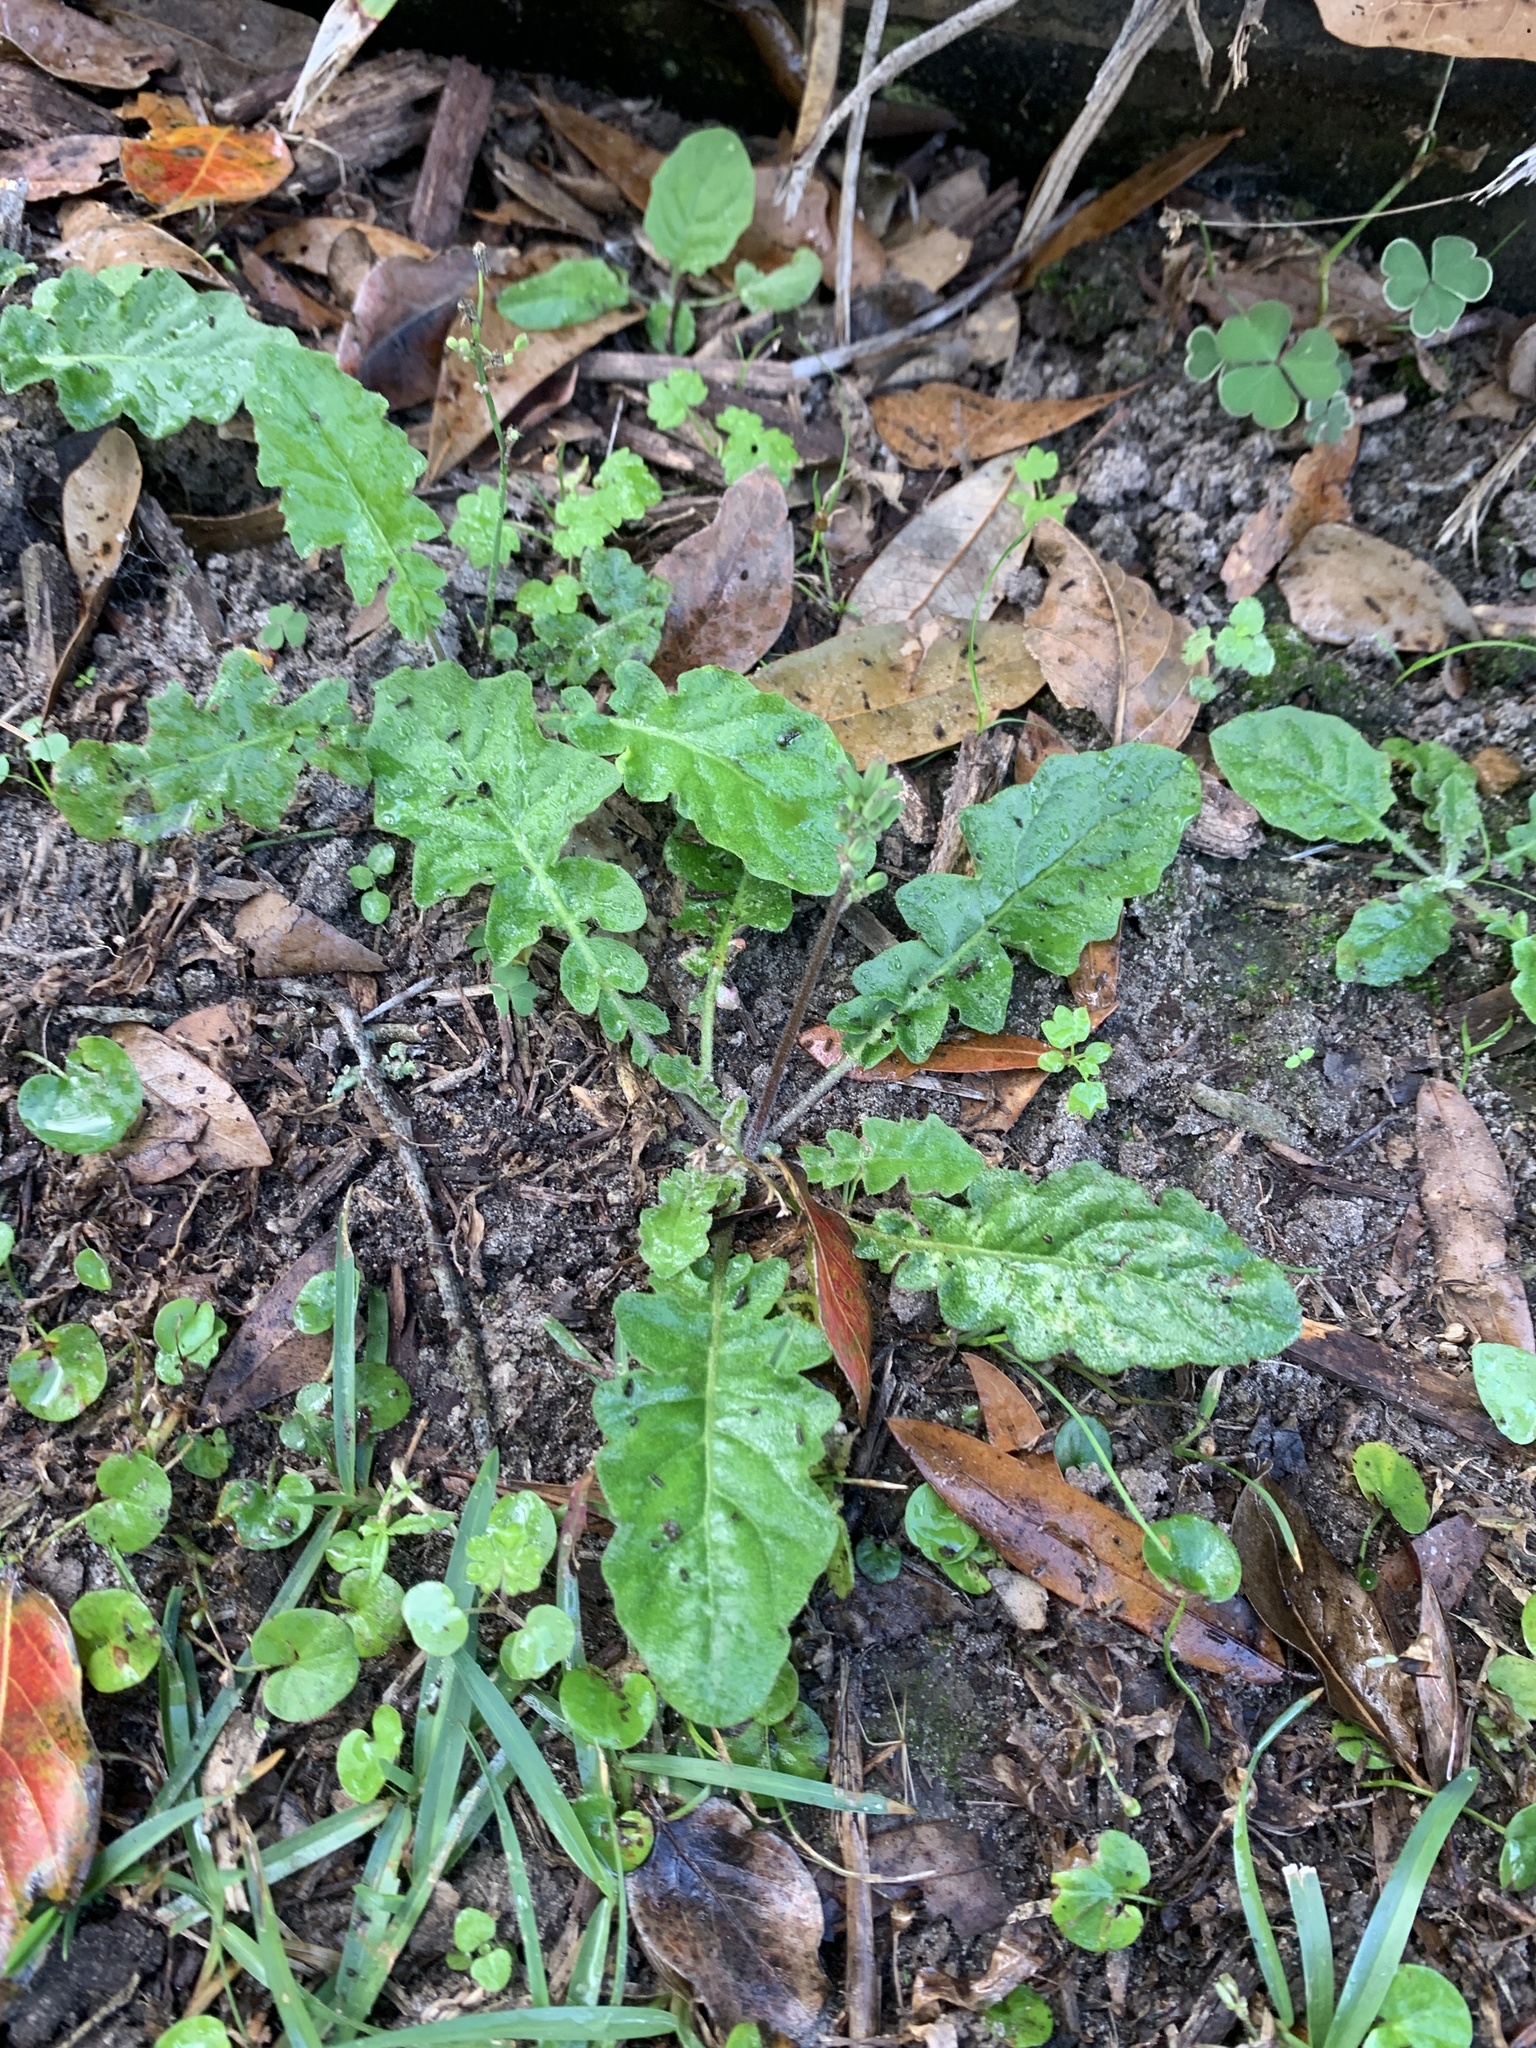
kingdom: Plantae
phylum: Tracheophyta
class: Magnoliopsida
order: Asterales
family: Asteraceae
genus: Youngia
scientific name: Youngia japonica
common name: Oriental false hawksbeard
